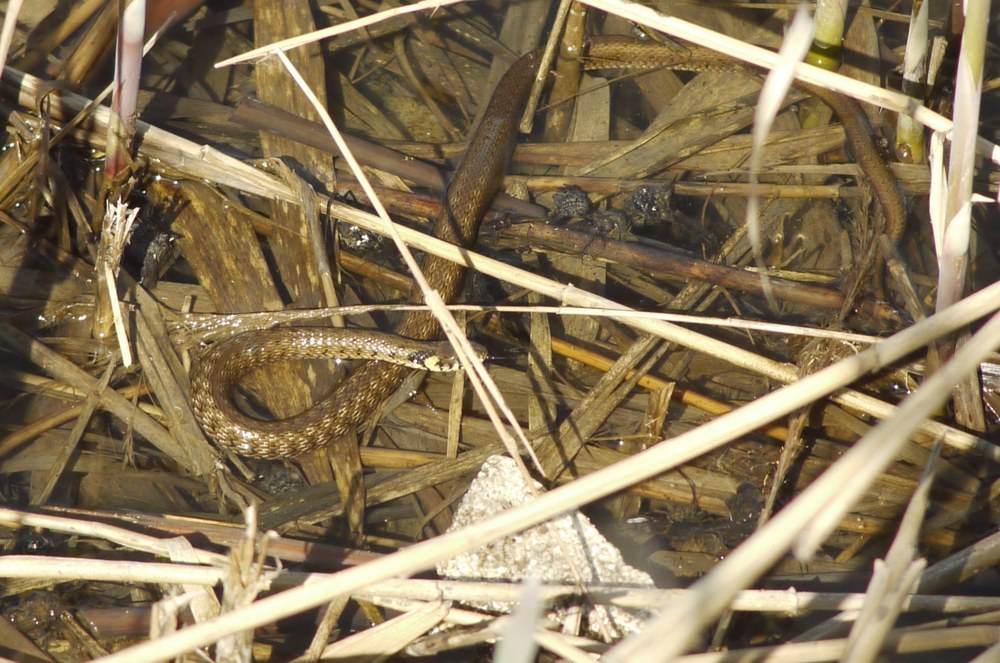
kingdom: Animalia
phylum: Chordata
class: Squamata
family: Colubridae
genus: Natrix
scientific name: Natrix natrix
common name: Grass snake
